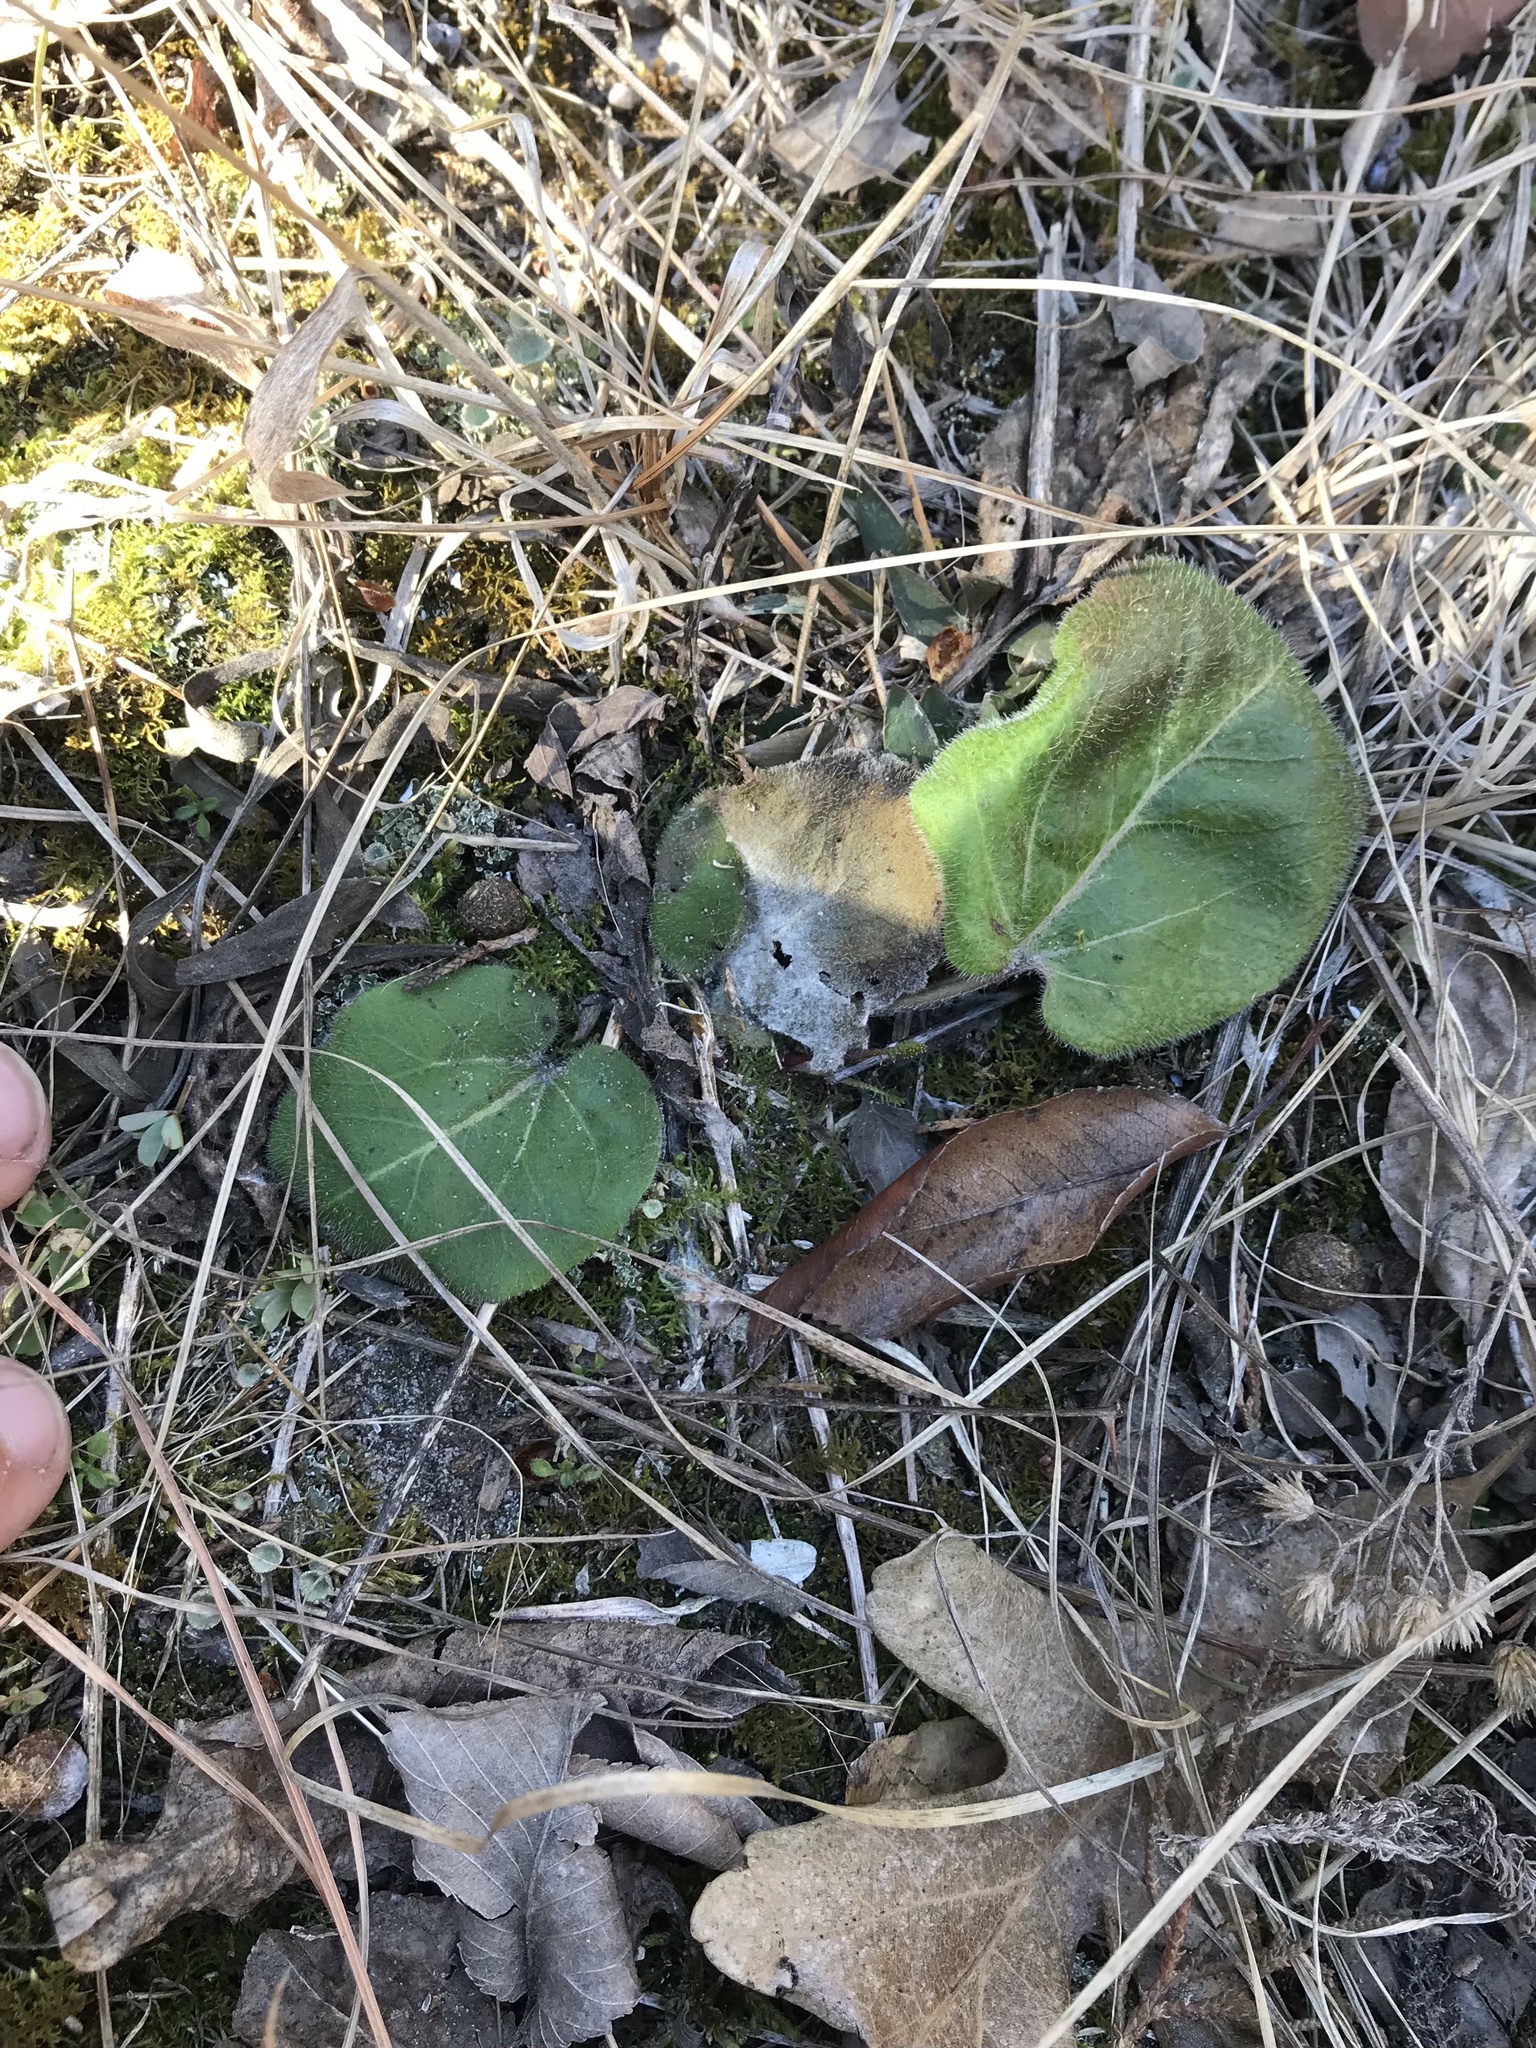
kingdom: Plantae
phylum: Tracheophyta
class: Magnoliopsida
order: Lamiales
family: Plantaginaceae
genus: Synthyris
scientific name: Synthyris bullii
